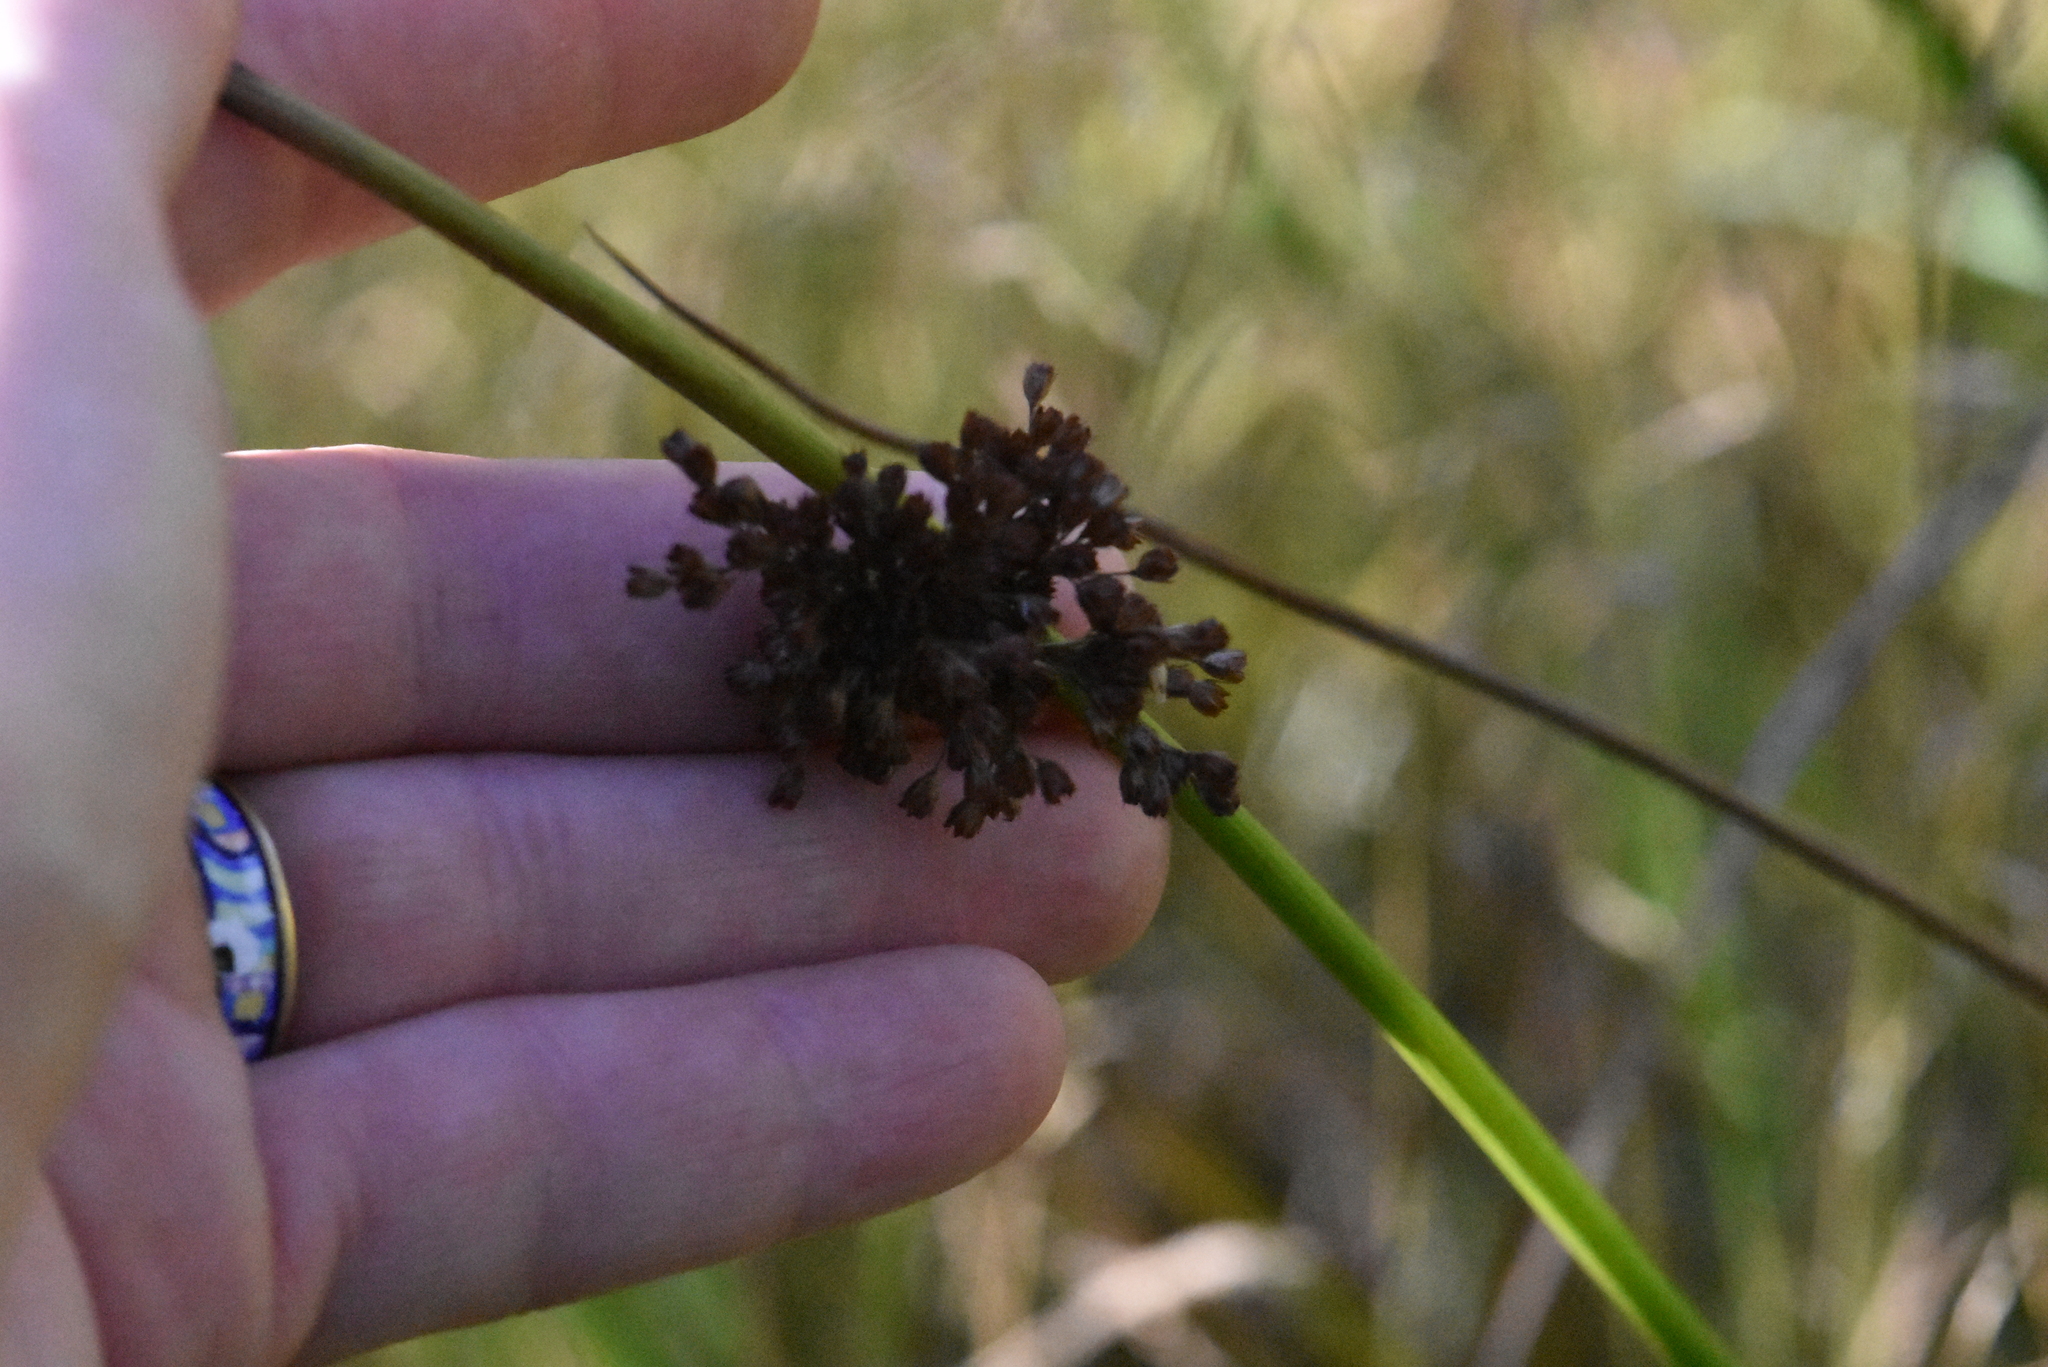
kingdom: Plantae
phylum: Tracheophyta
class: Liliopsida
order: Poales
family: Juncaceae
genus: Juncus
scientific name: Juncus effusus
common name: Soft rush
